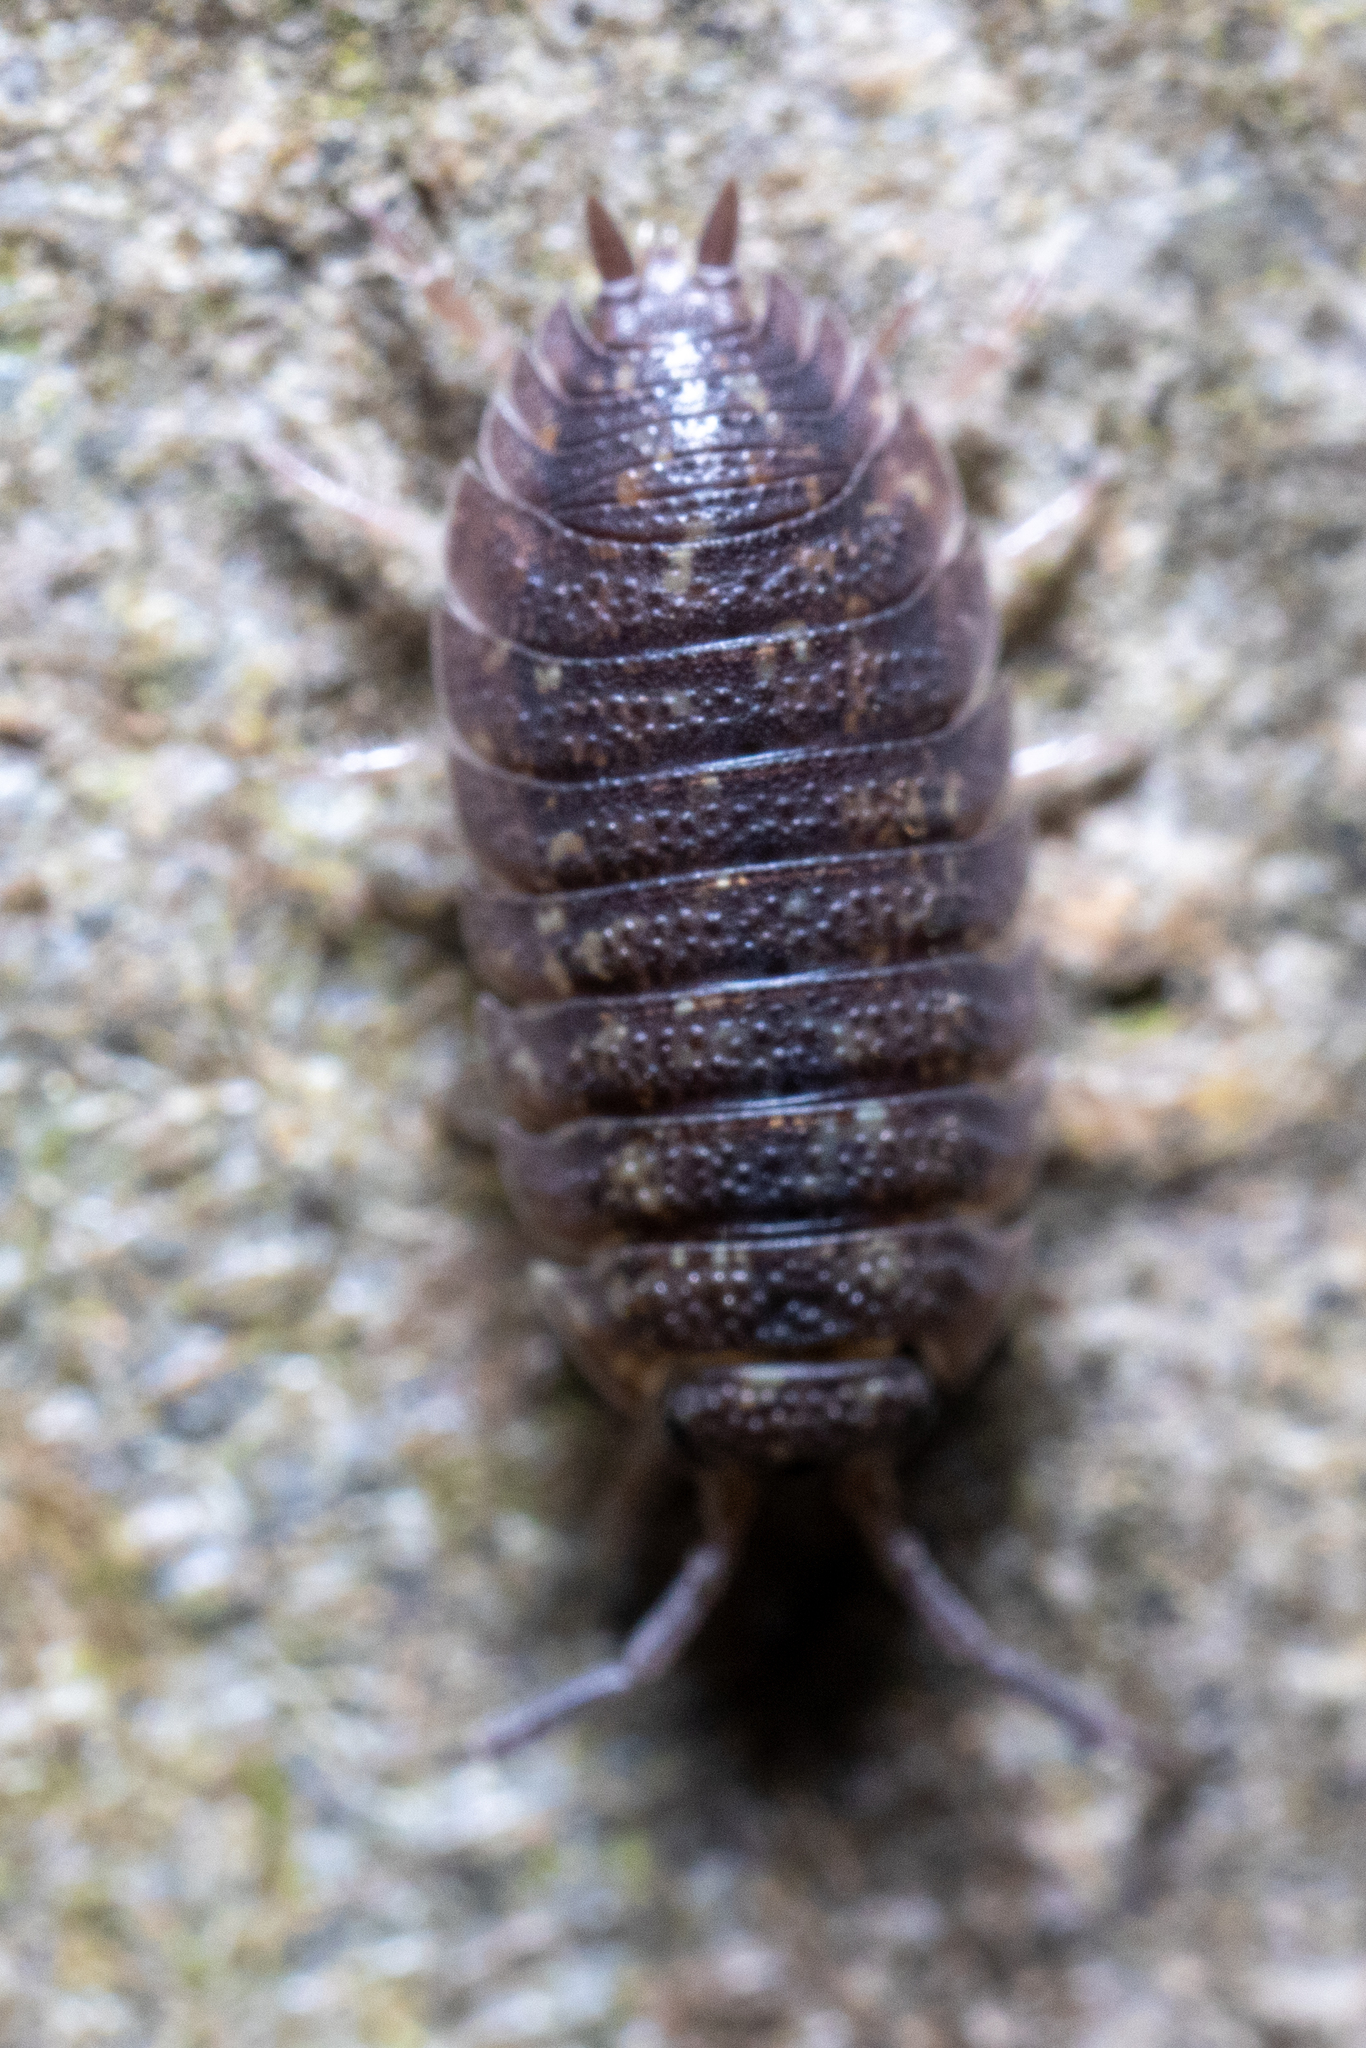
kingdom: Animalia
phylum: Arthropoda
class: Malacostraca
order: Isopoda
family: Porcellionidae
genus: Porcellio
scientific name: Porcellio scaber
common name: Common rough woodlouse
